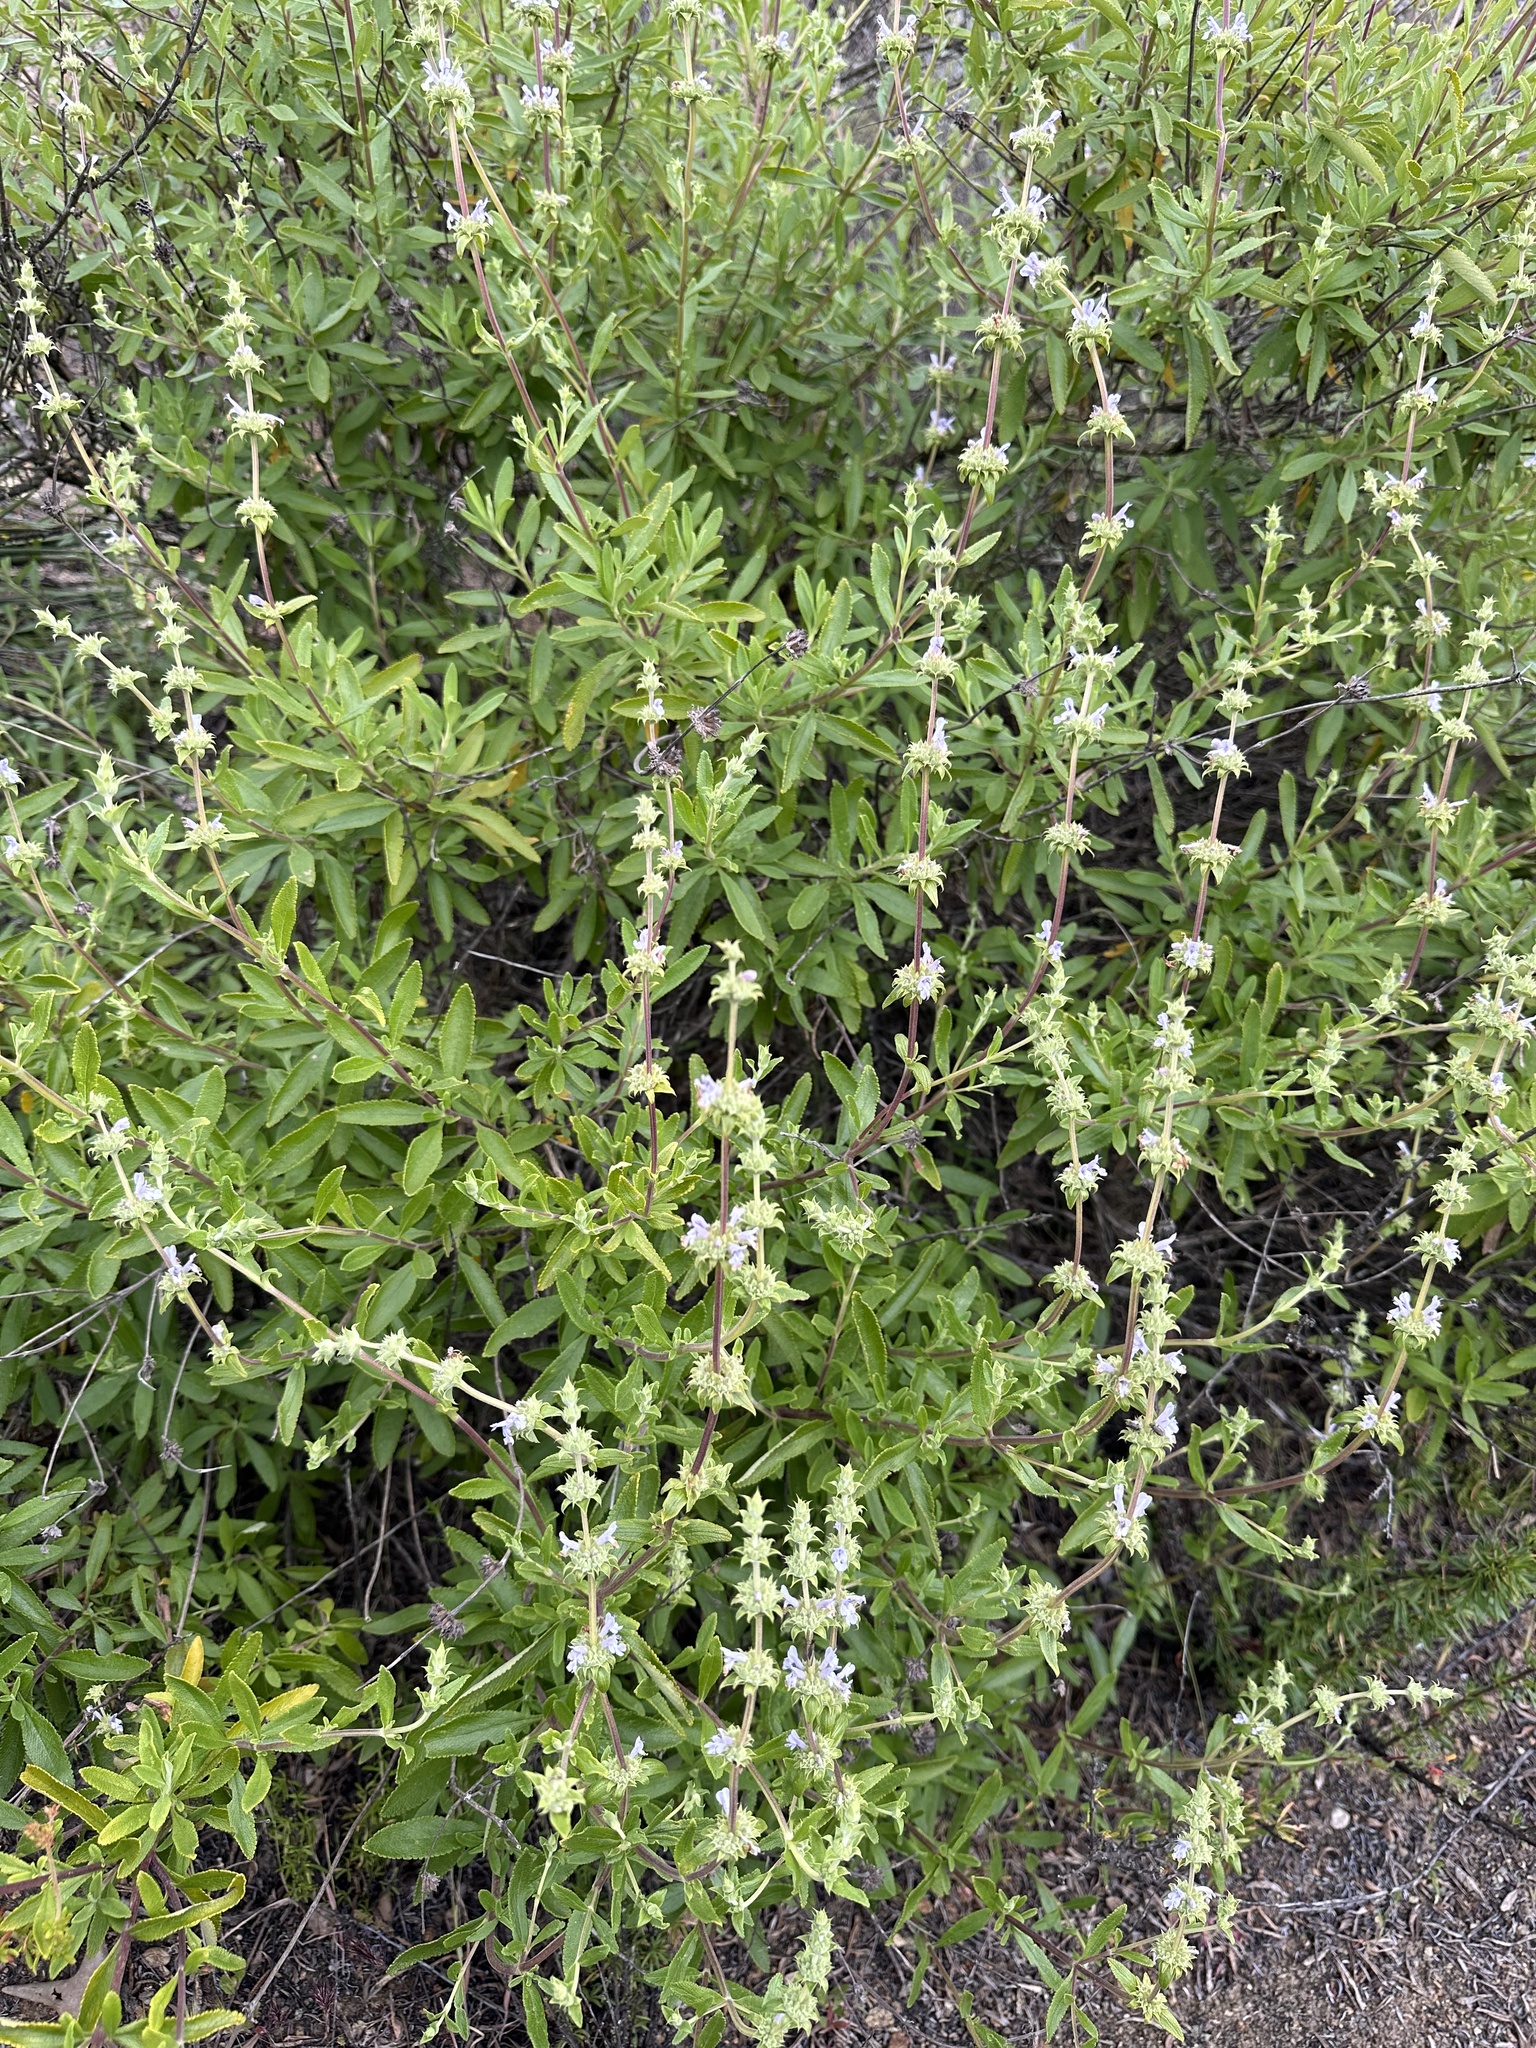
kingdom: Plantae
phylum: Tracheophyta
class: Magnoliopsida
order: Lamiales
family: Lamiaceae
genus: Salvia
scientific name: Salvia mellifera
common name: Black sage
